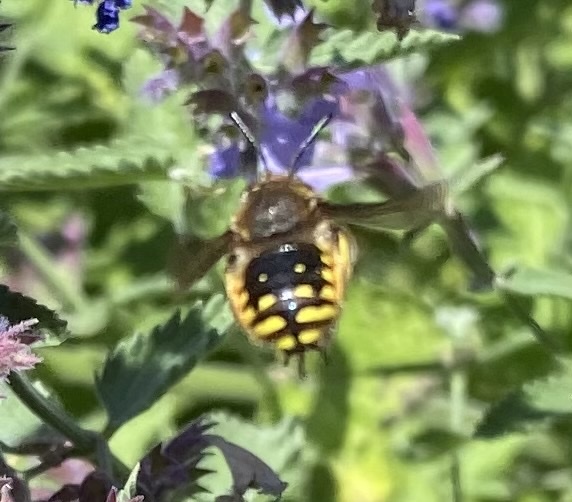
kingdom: Animalia
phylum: Arthropoda
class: Insecta
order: Hymenoptera
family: Megachilidae
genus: Anthidium
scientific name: Anthidium manicatum
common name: Wool carder bee
